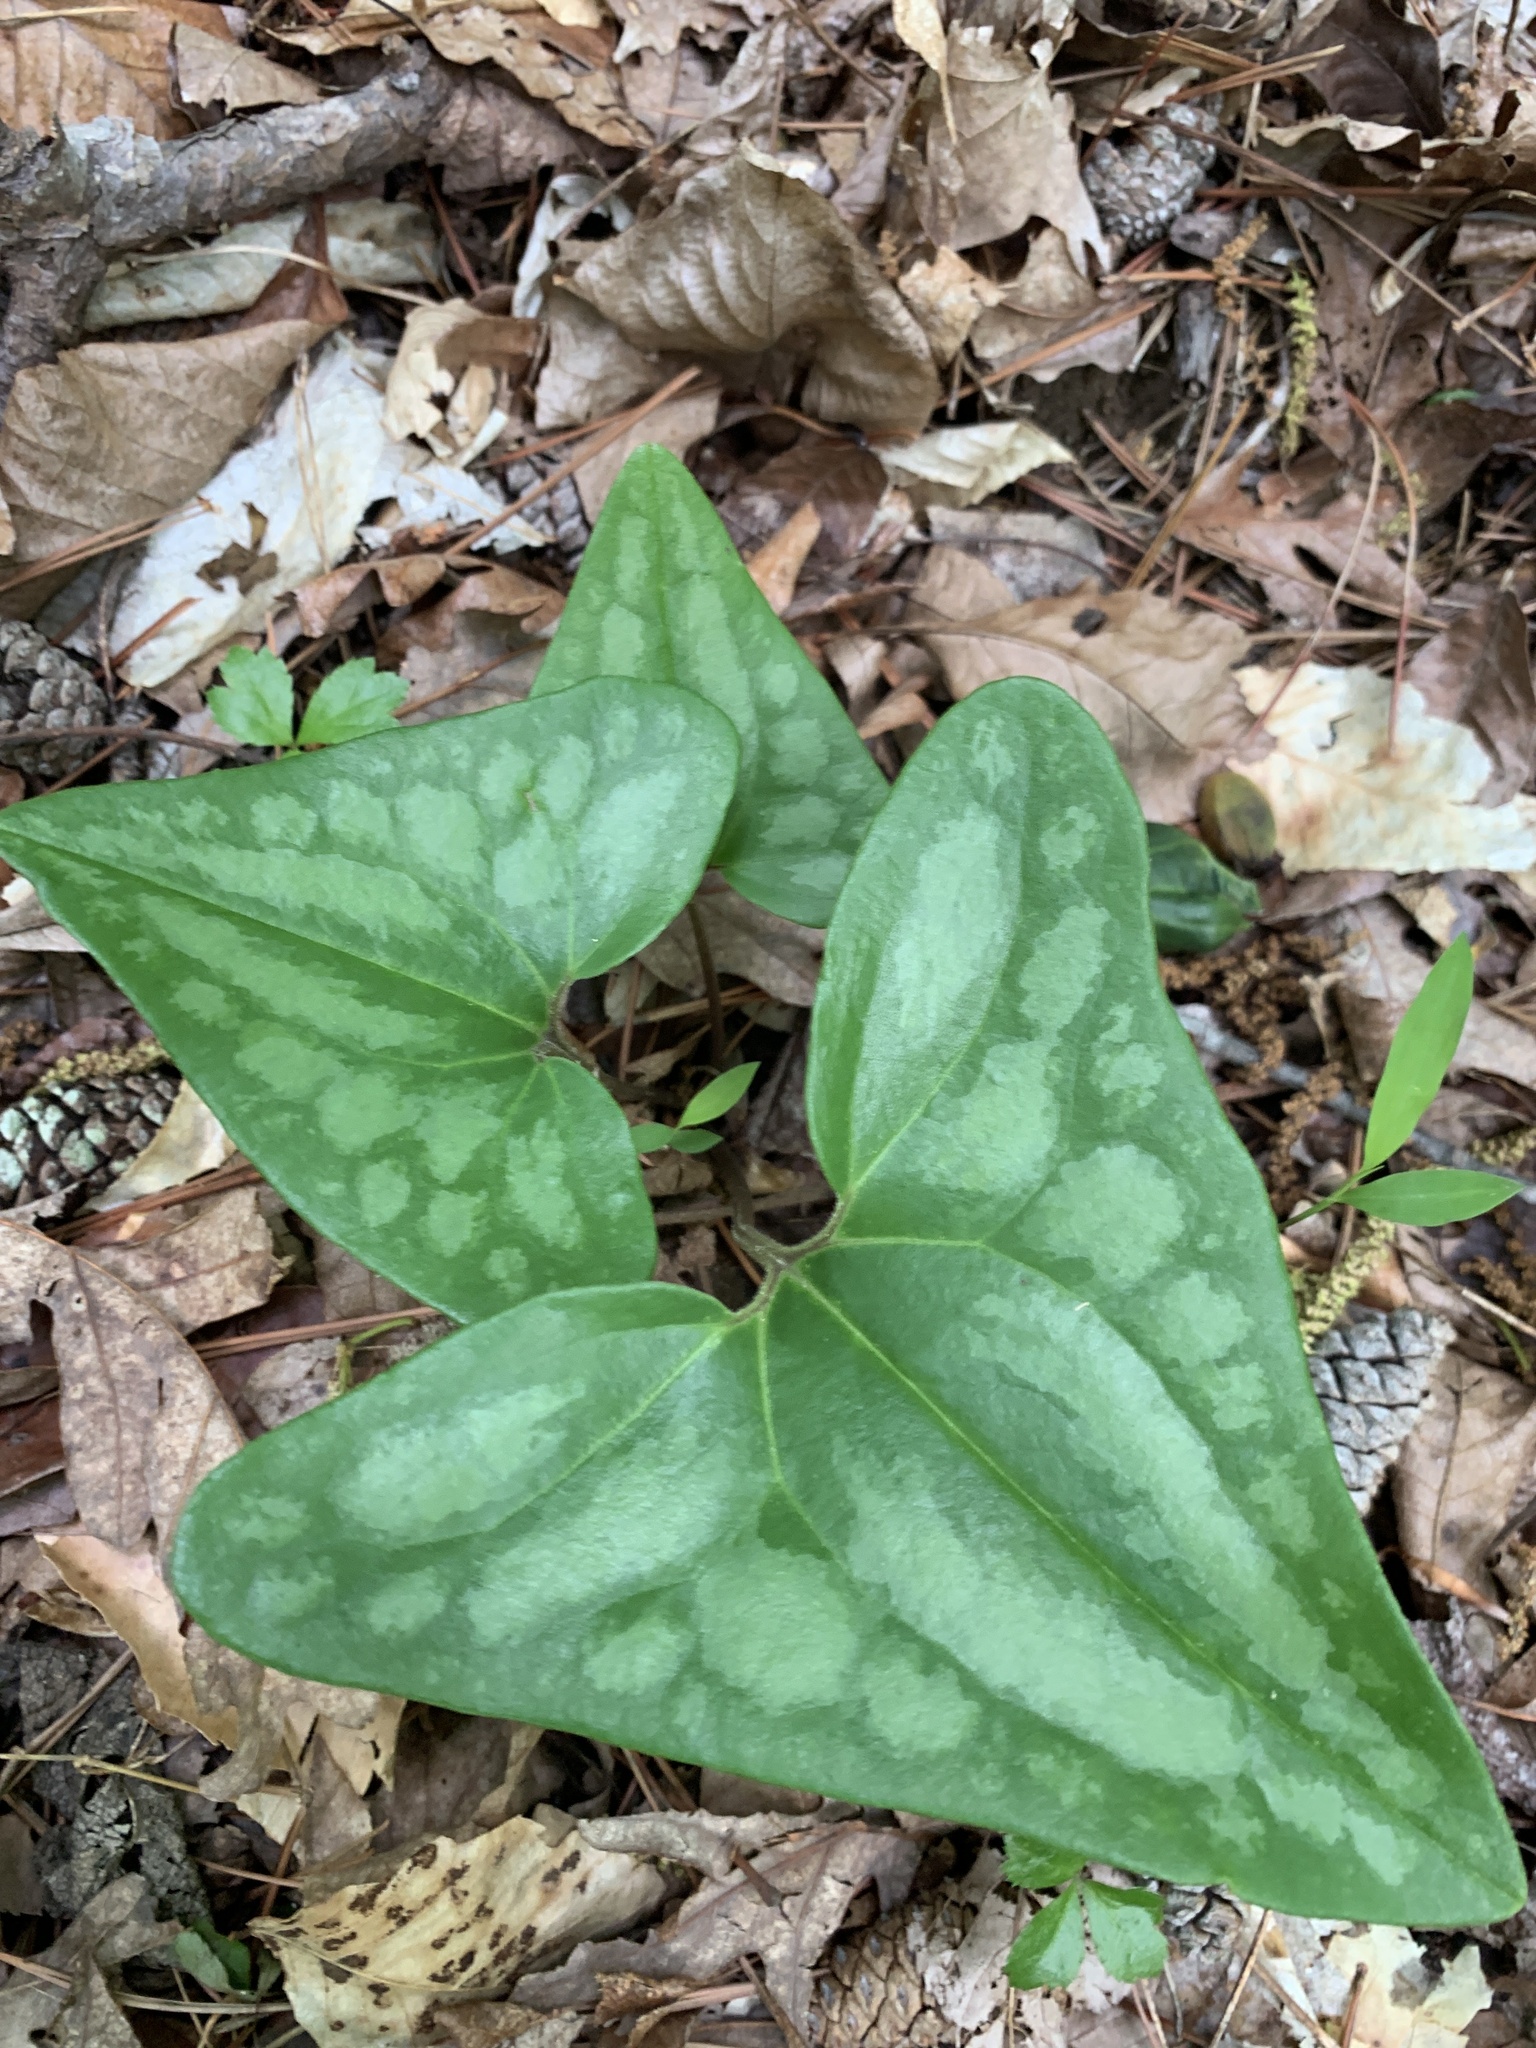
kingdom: Plantae
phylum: Tracheophyta
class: Magnoliopsida
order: Piperales
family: Aristolochiaceae
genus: Hexastylis
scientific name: Hexastylis arifolia
